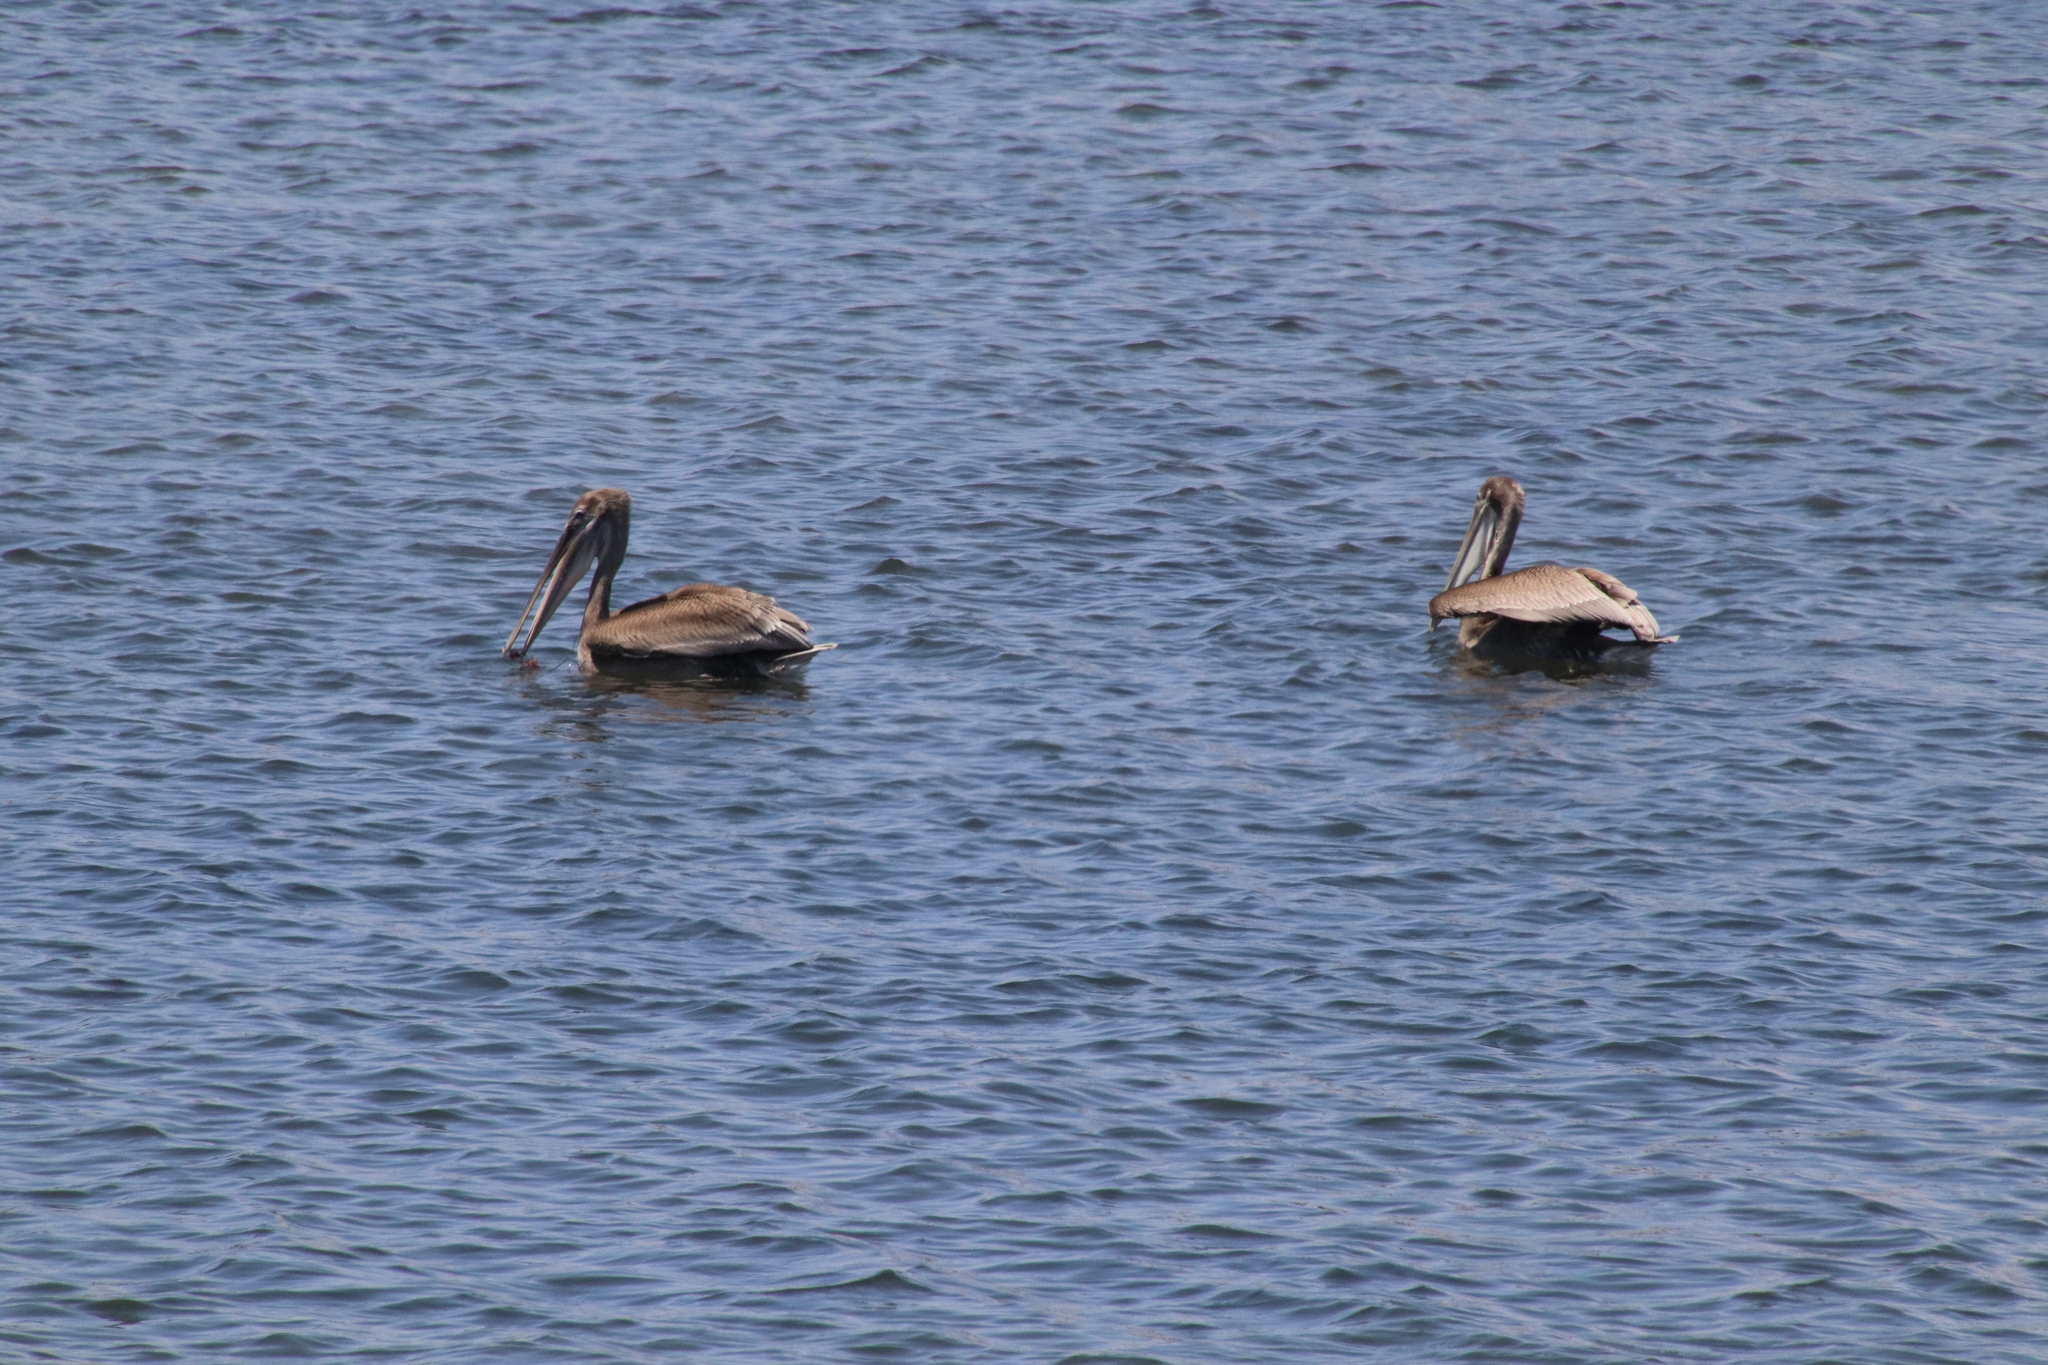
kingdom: Animalia
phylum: Chordata
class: Aves
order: Pelecaniformes
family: Pelecanidae
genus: Pelecanus
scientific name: Pelecanus occidentalis
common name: Brown pelican
